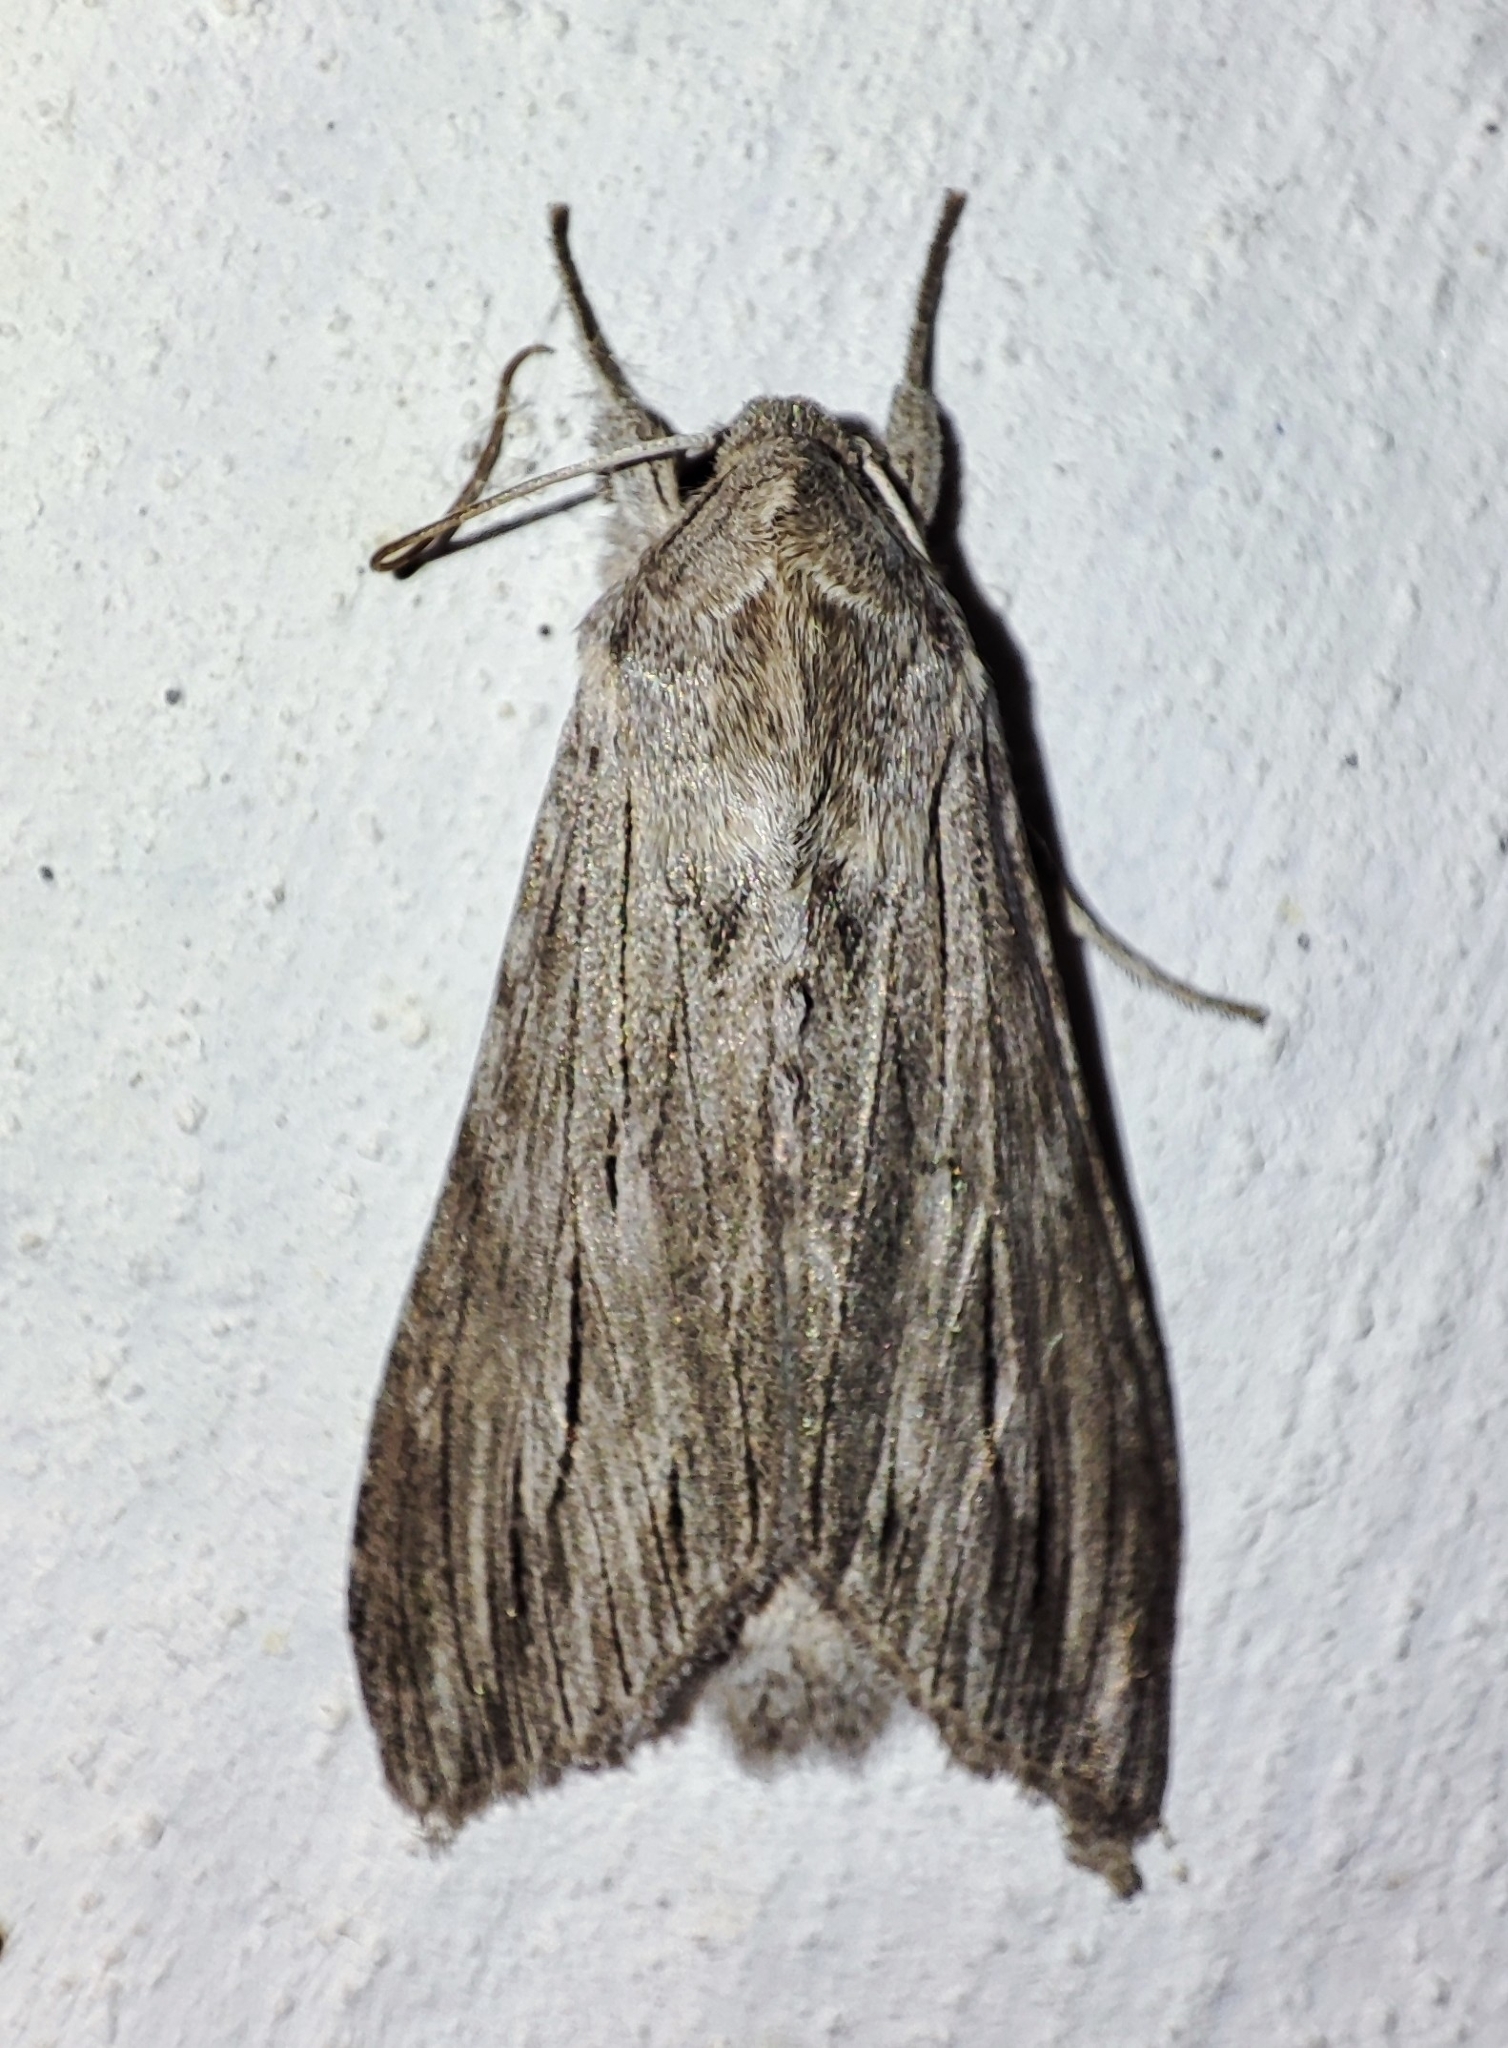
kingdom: Animalia
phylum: Arthropoda
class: Insecta
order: Lepidoptera
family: Noctuidae
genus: Cucullia
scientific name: Cucullia tanaceti
